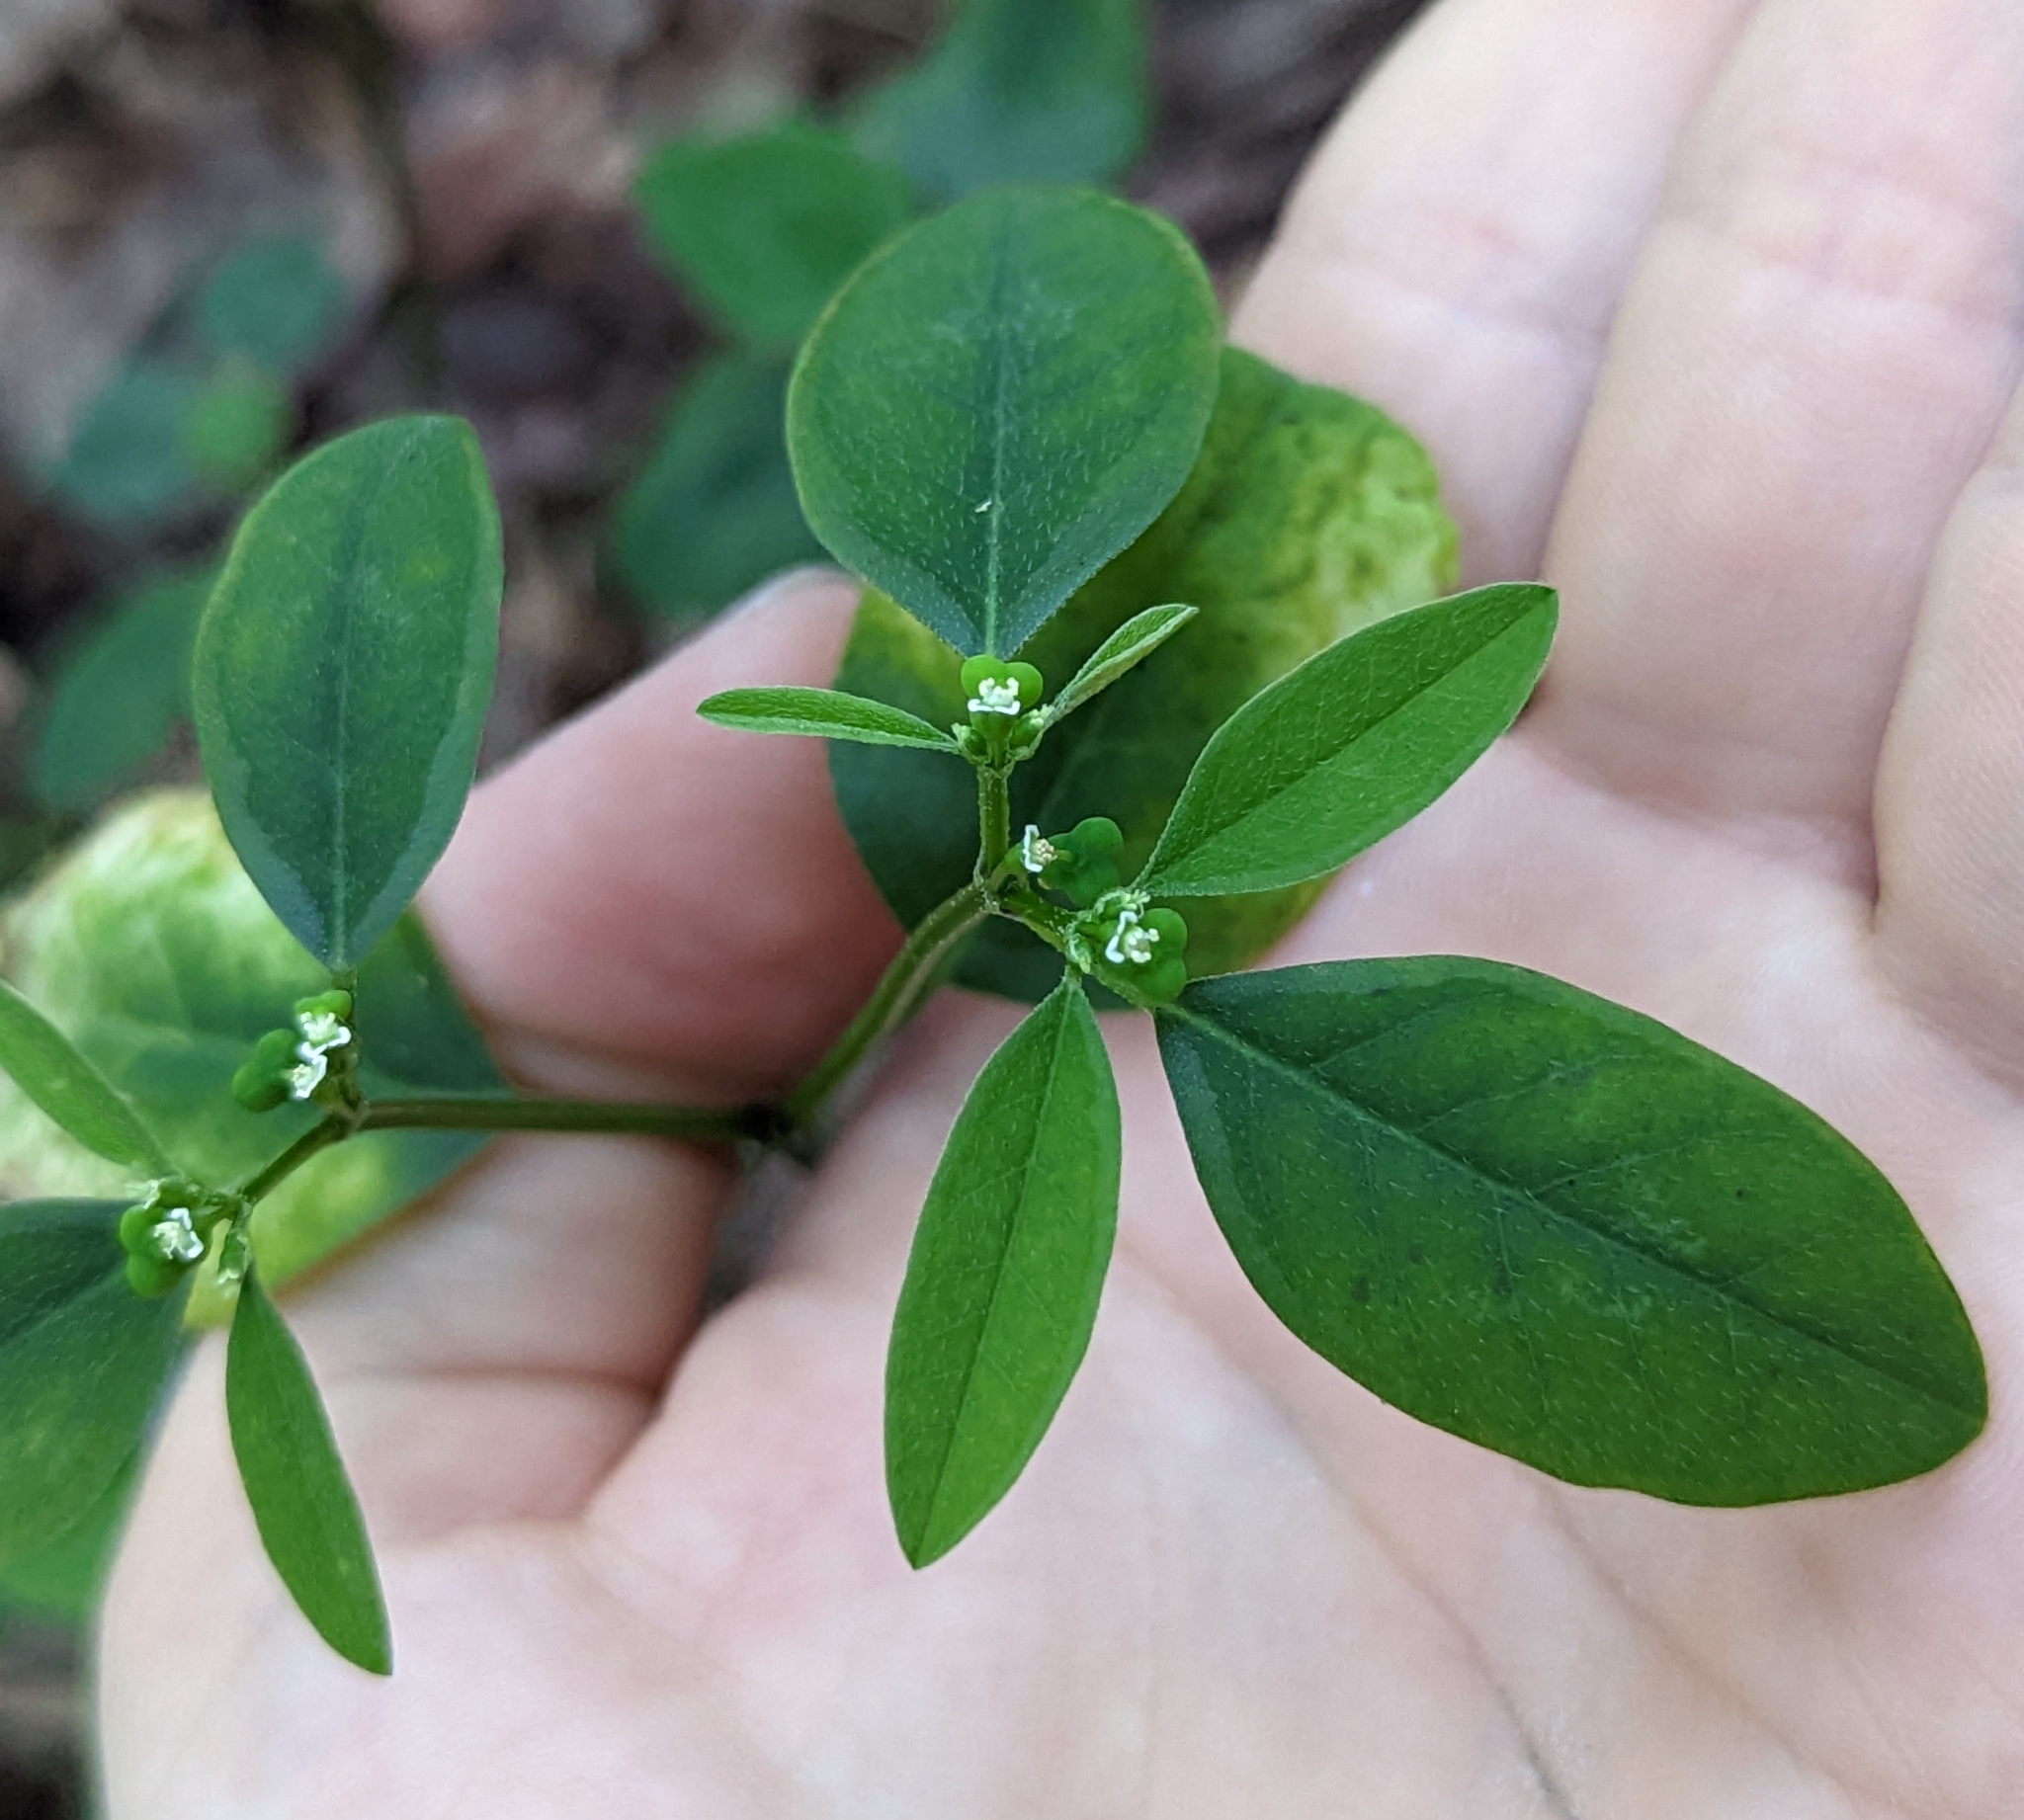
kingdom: Plantae
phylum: Tracheophyta
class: Magnoliopsida
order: Malpighiales
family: Euphorbiaceae
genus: Euphorbia
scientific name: Euphorbia graminea
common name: Grassleaf spurge
